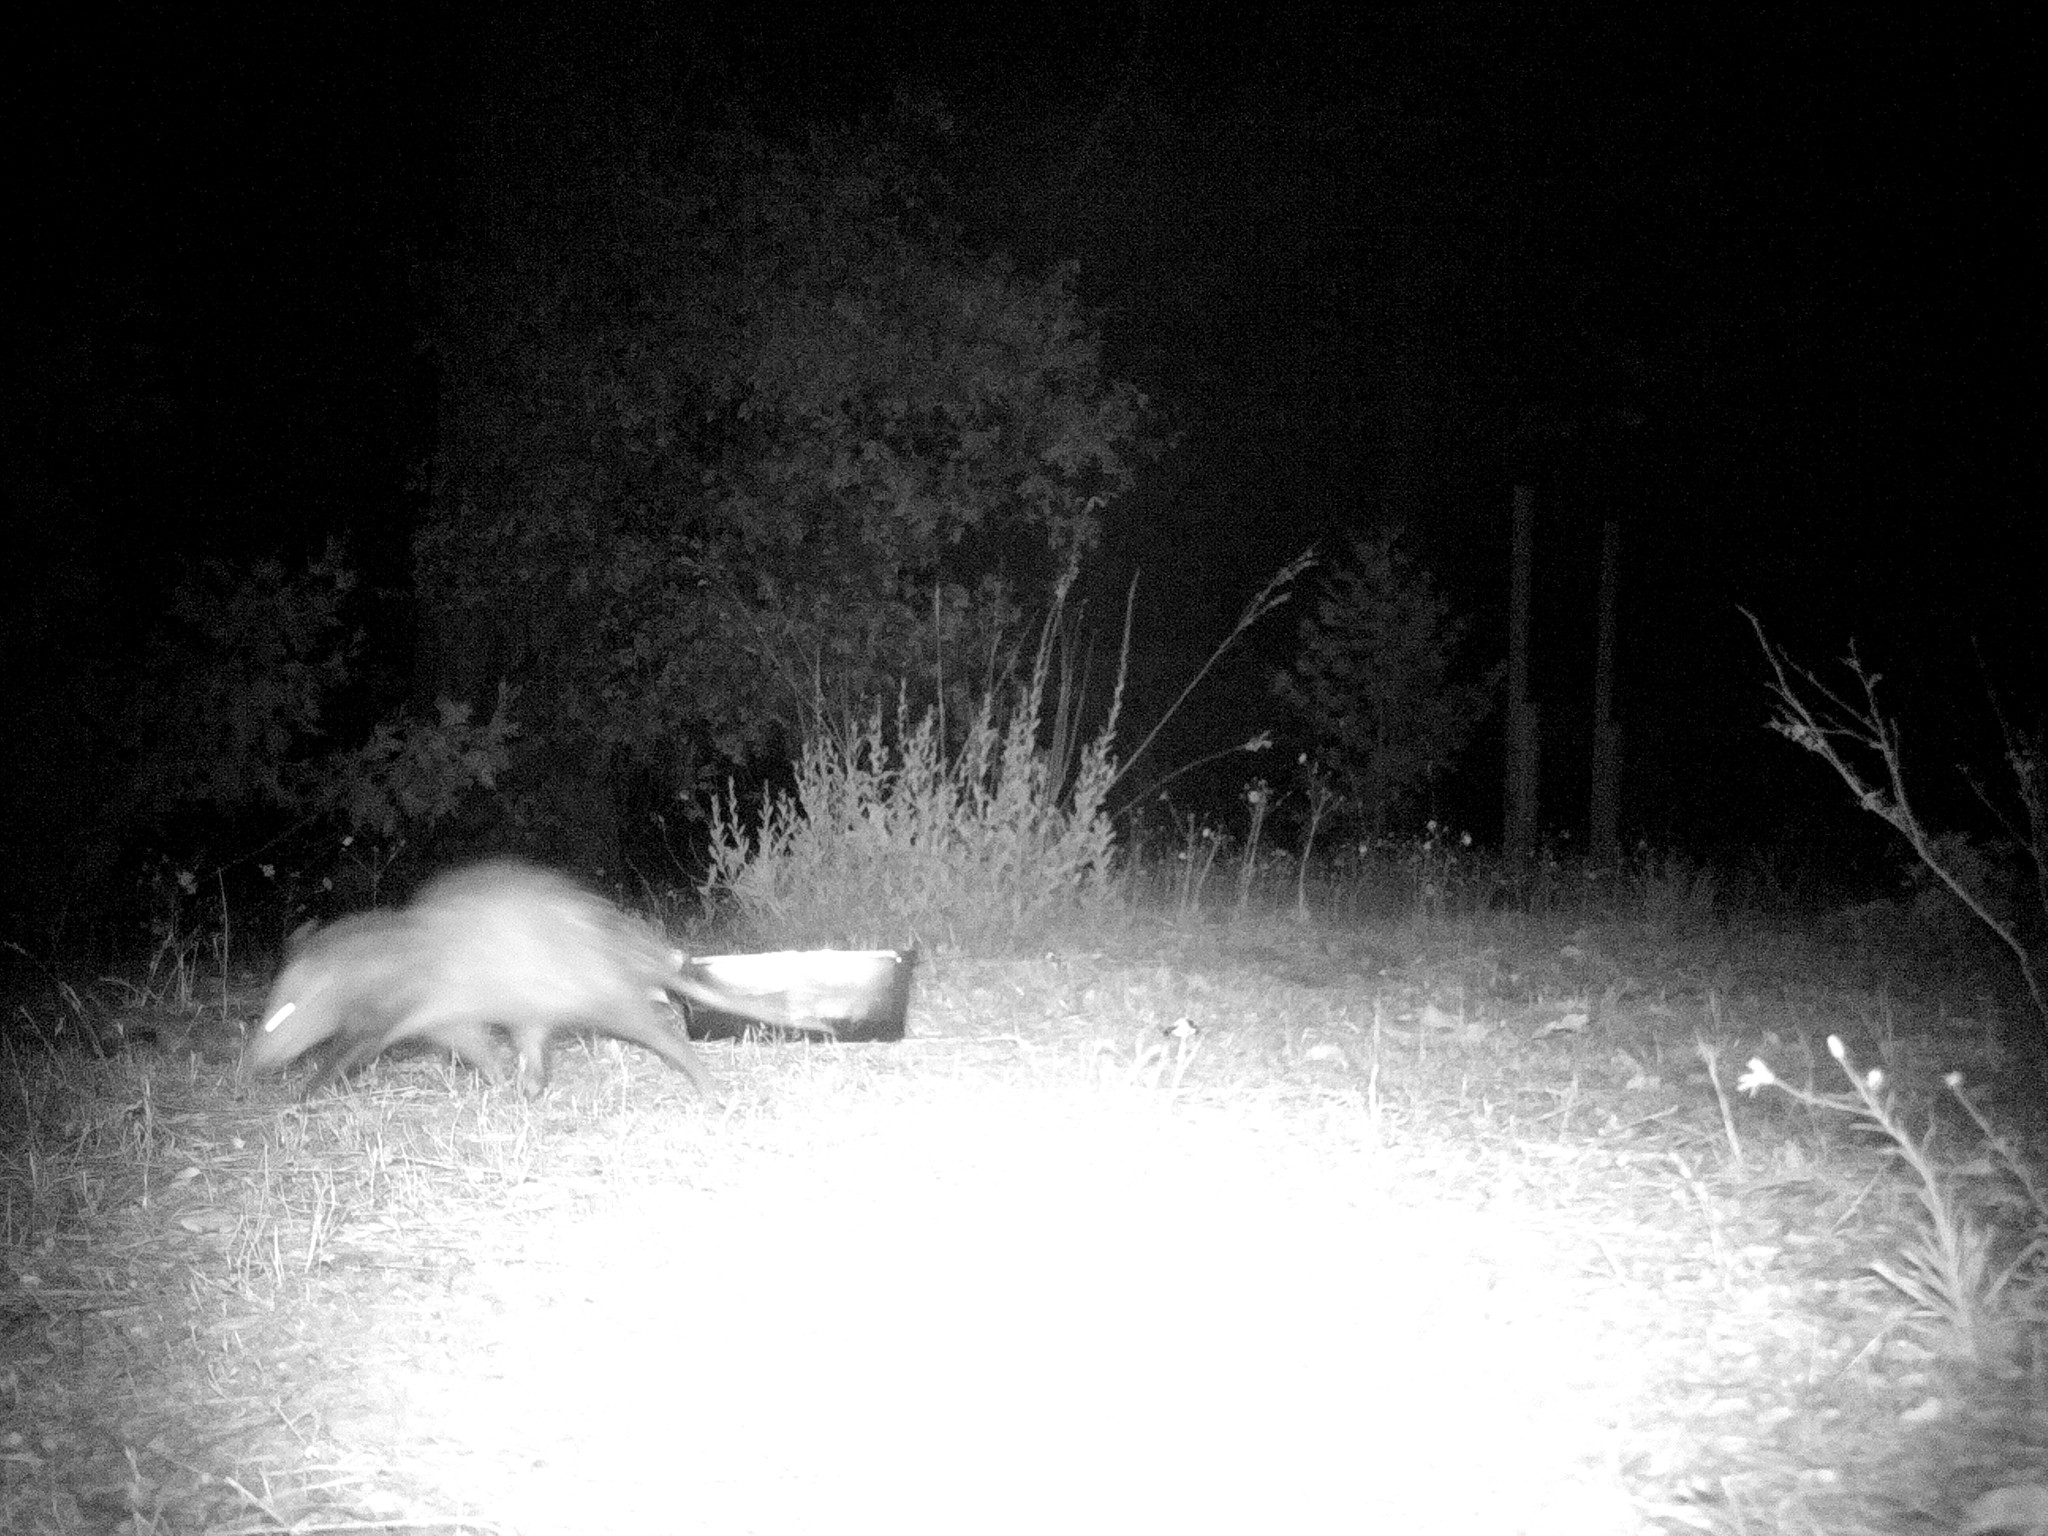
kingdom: Animalia
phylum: Chordata
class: Mammalia
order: Didelphimorphia
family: Didelphidae
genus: Didelphis
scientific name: Didelphis virginiana
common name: Virginia opossum
